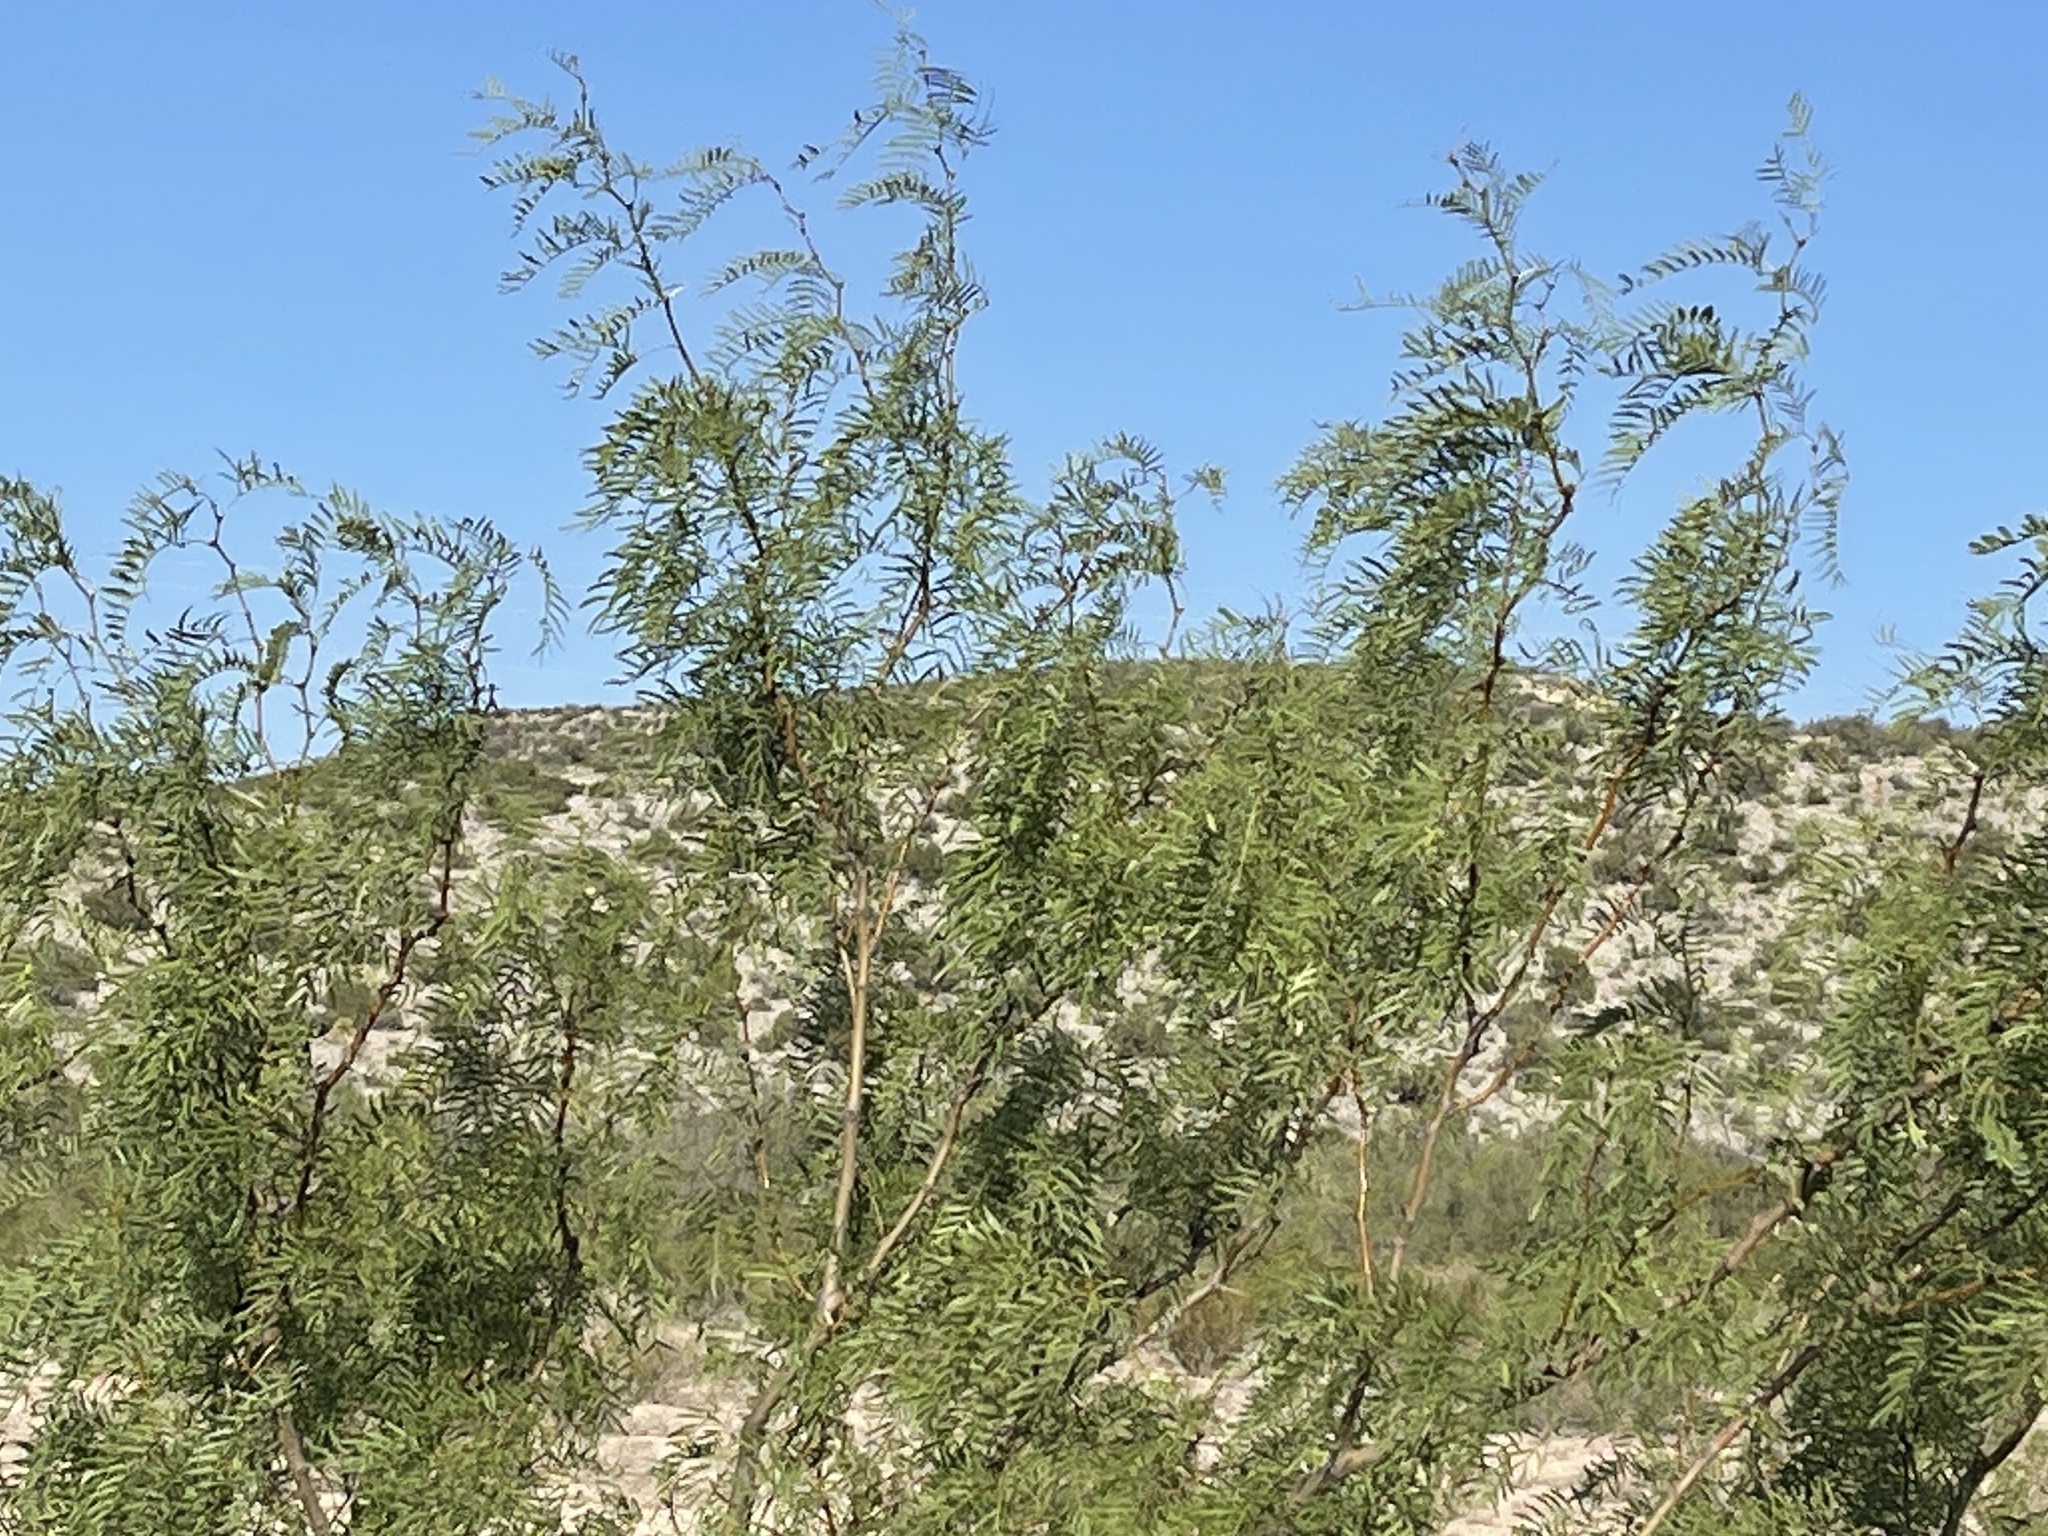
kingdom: Plantae
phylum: Tracheophyta
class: Magnoliopsida
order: Fabales
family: Fabaceae
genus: Prosopis
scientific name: Prosopis glandulosa
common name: Honey mesquite
